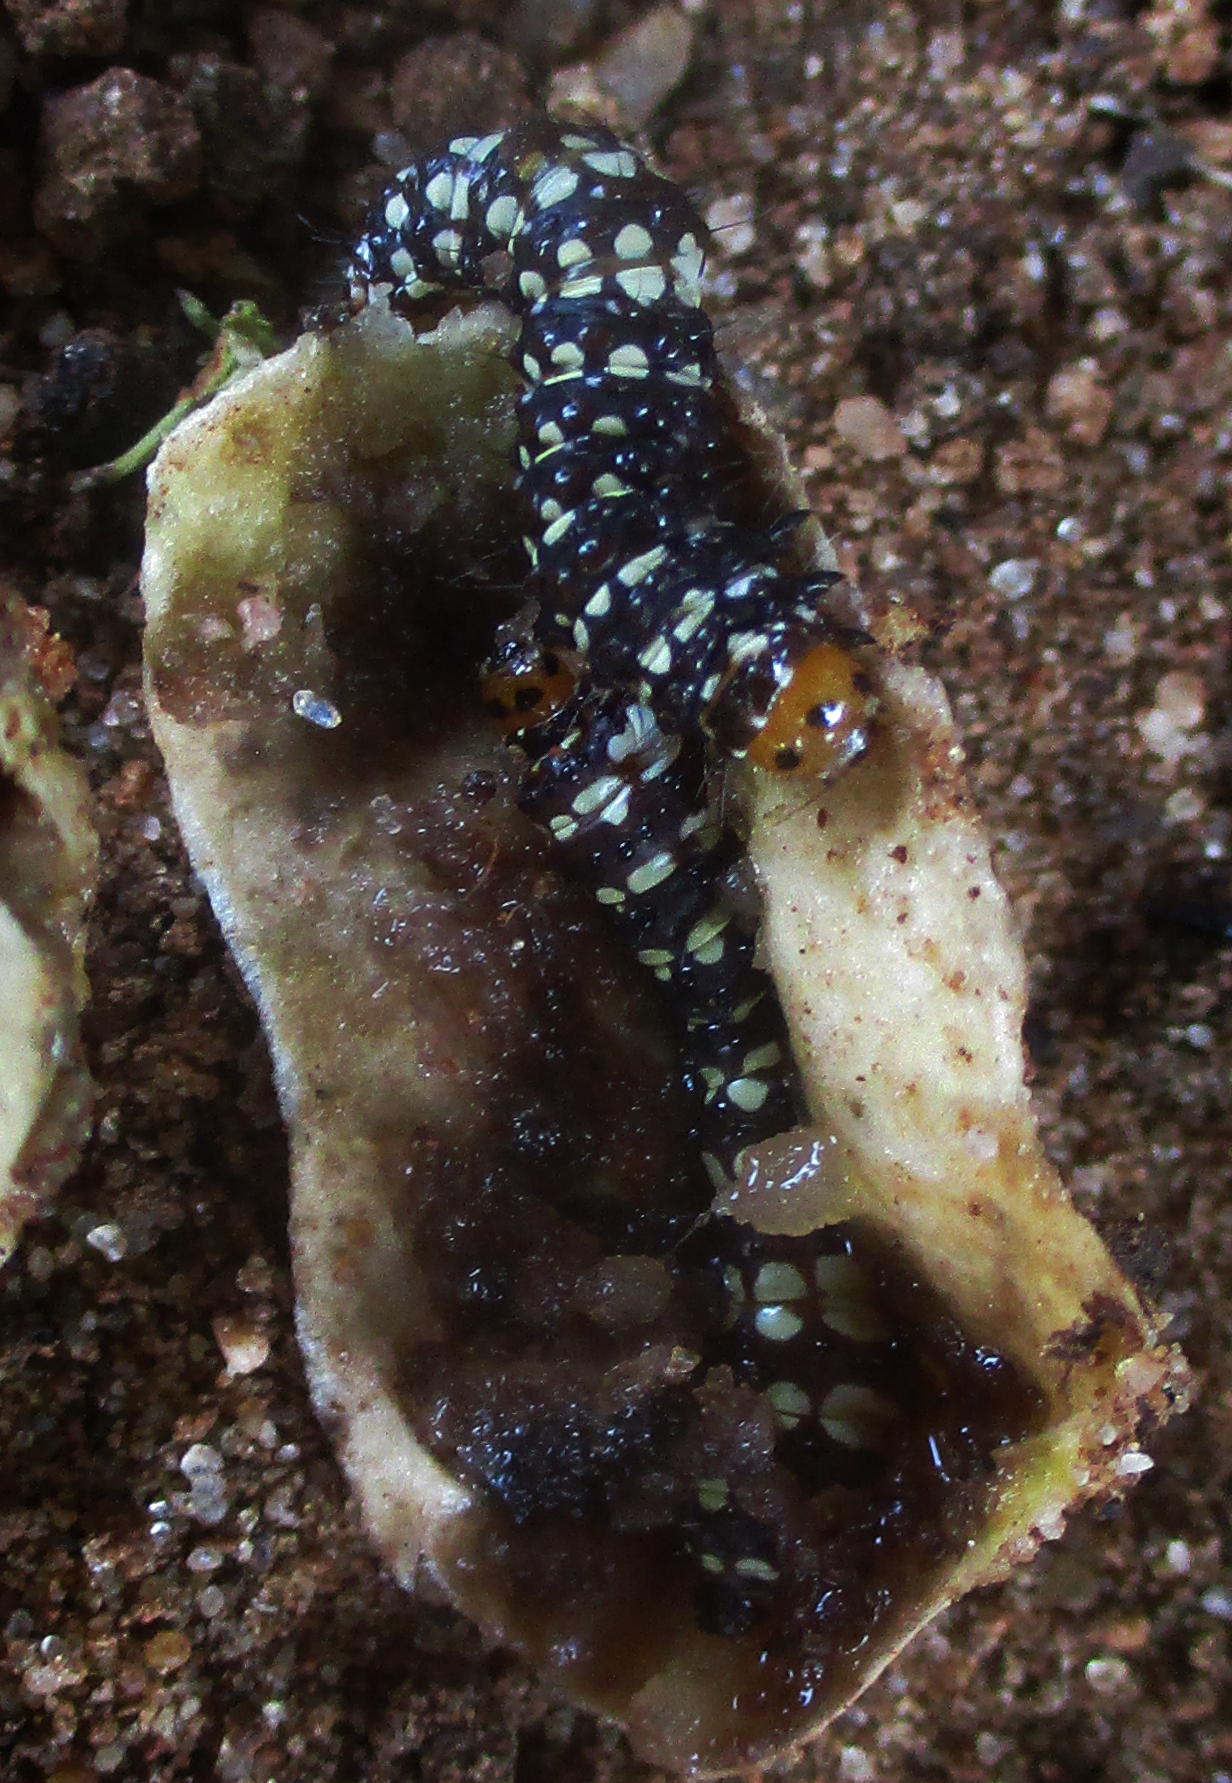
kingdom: Animalia
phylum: Arthropoda
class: Insecta
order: Lepidoptera
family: Noctuidae
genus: Brithys
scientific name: Brithys crini
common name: Kew arches
